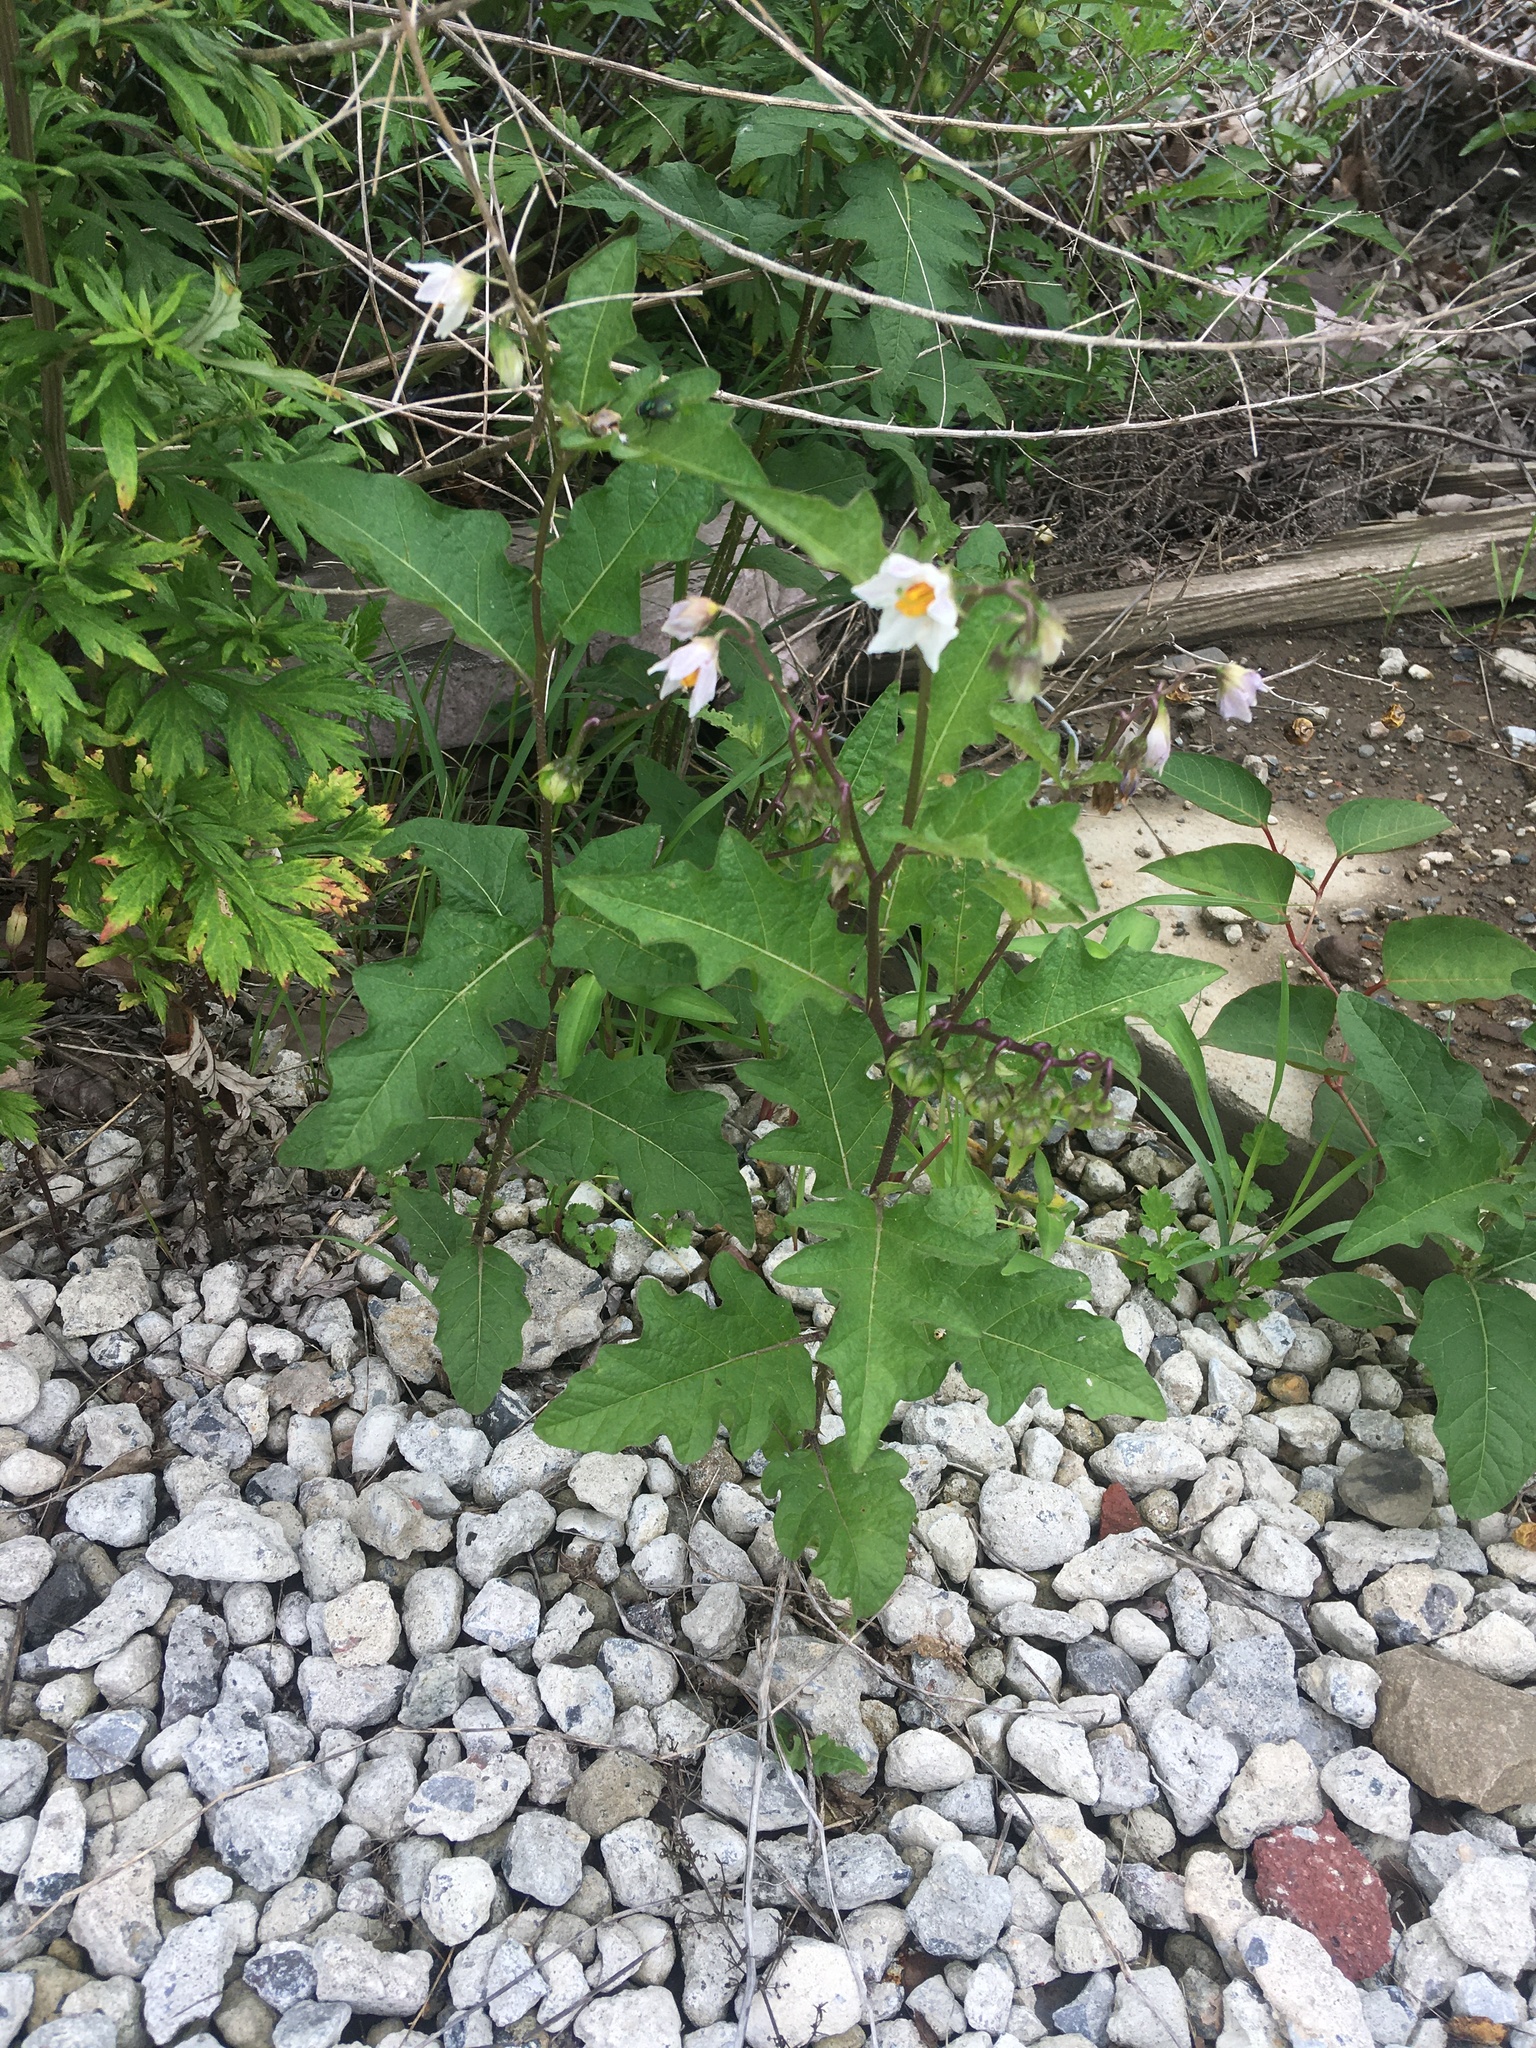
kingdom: Plantae
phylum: Tracheophyta
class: Magnoliopsida
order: Solanales
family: Solanaceae
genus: Solanum
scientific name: Solanum carolinense
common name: Horse-nettle
